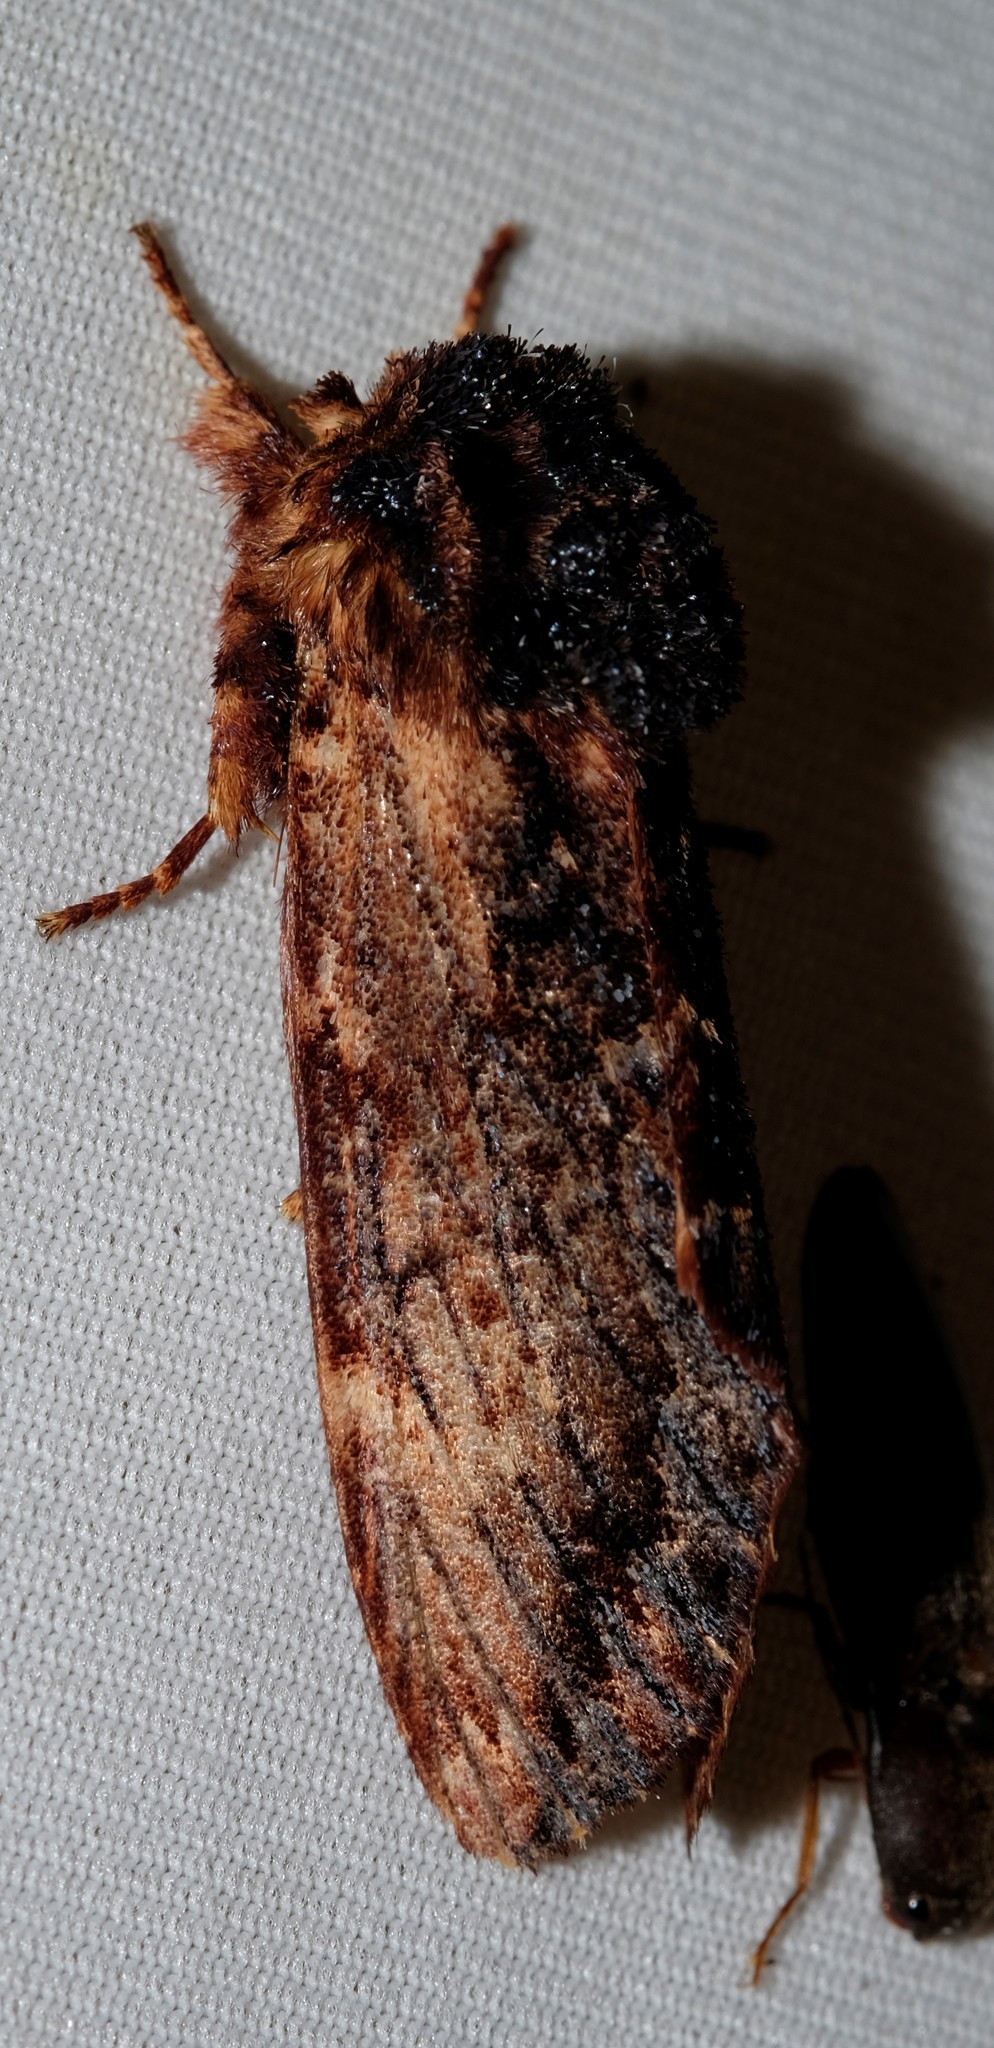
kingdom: Animalia
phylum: Arthropoda
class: Insecta
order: Lepidoptera
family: Notodontidae
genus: Sorama
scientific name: Sorama bicolor
